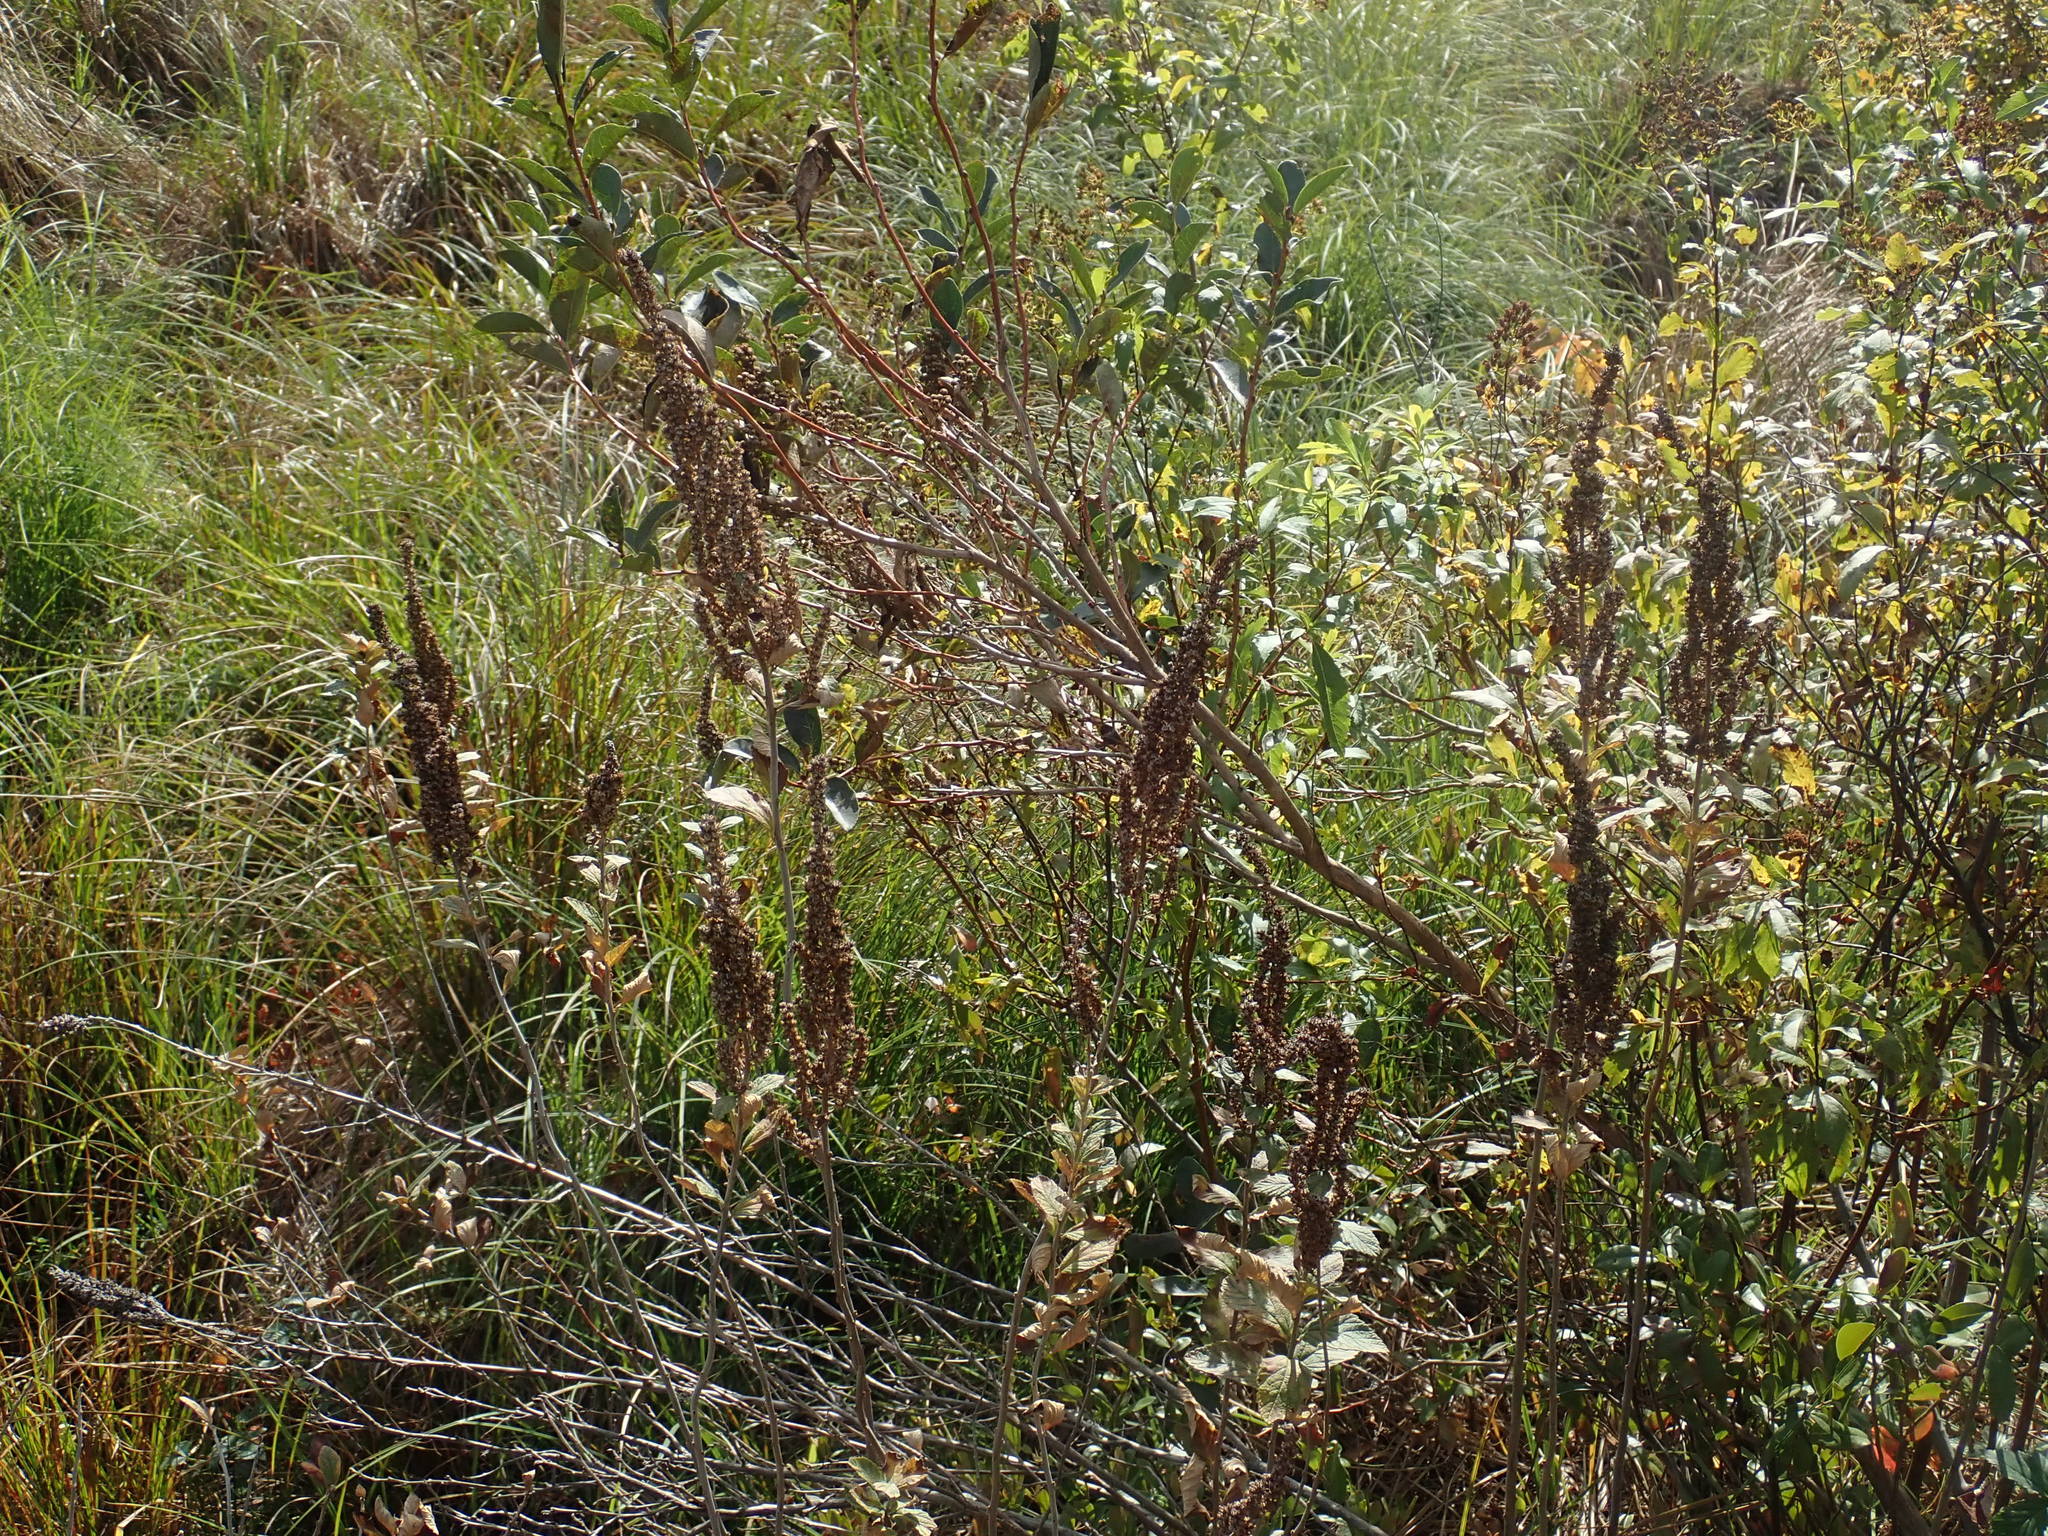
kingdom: Plantae
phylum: Tracheophyta
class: Magnoliopsida
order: Rosales
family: Rosaceae
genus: Spiraea
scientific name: Spiraea tomentosa
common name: Hardhack
